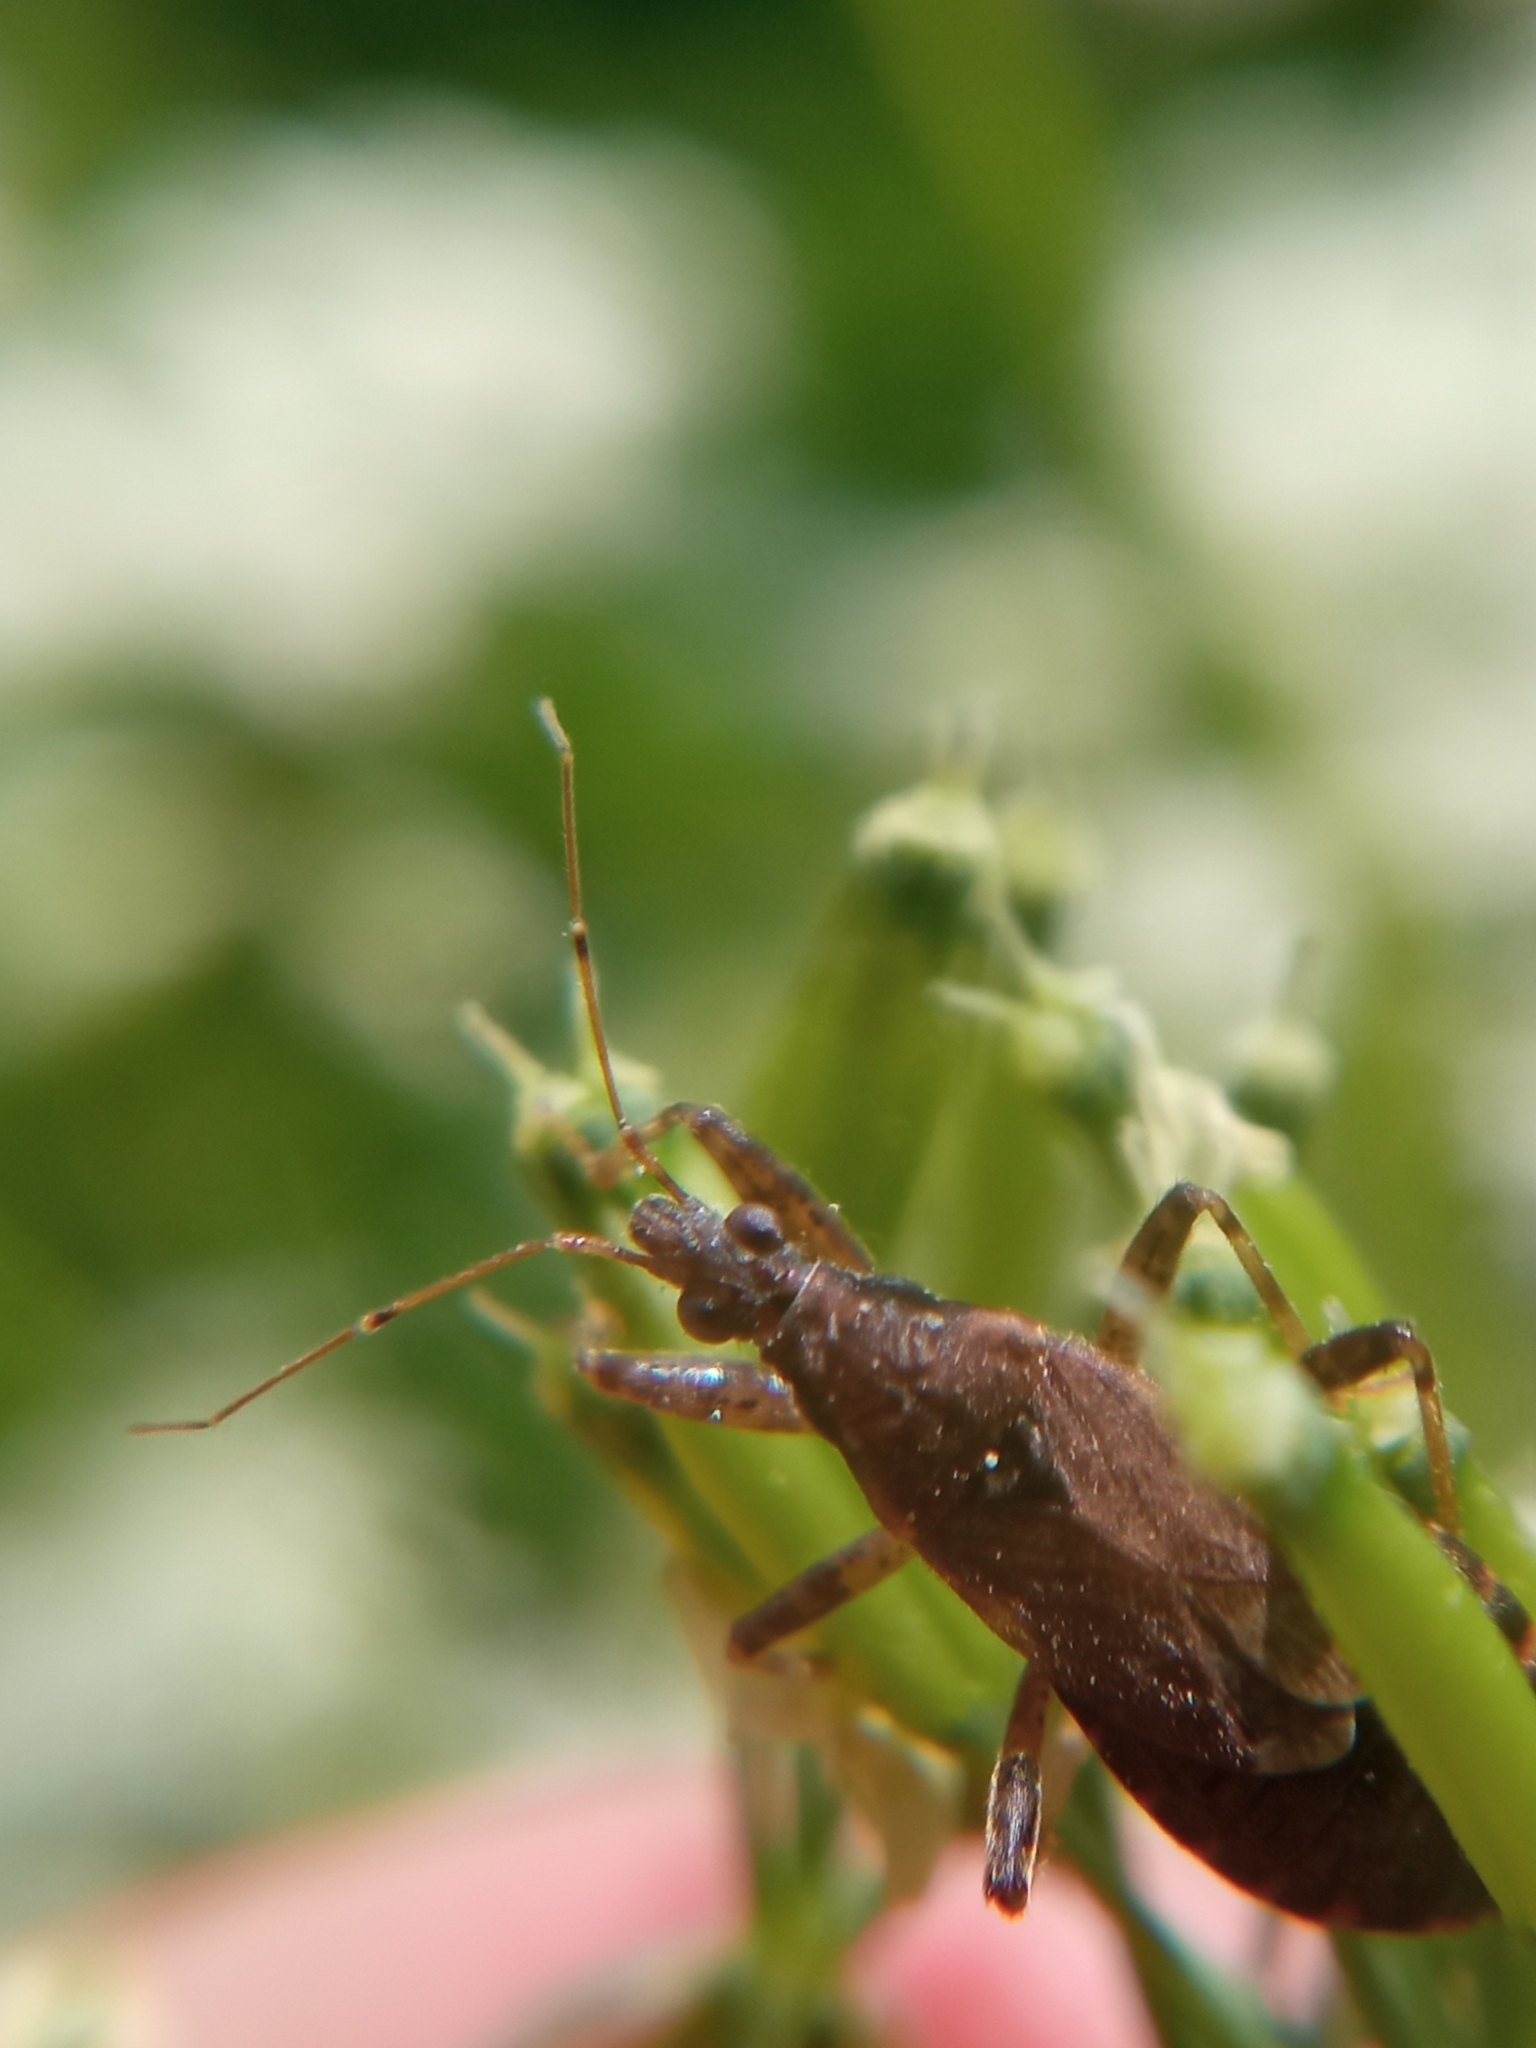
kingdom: Animalia
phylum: Arthropoda
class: Insecta
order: Hemiptera
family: Nabidae
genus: Himacerus
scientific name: Himacerus mirmicoides
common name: Ant damsel bug
